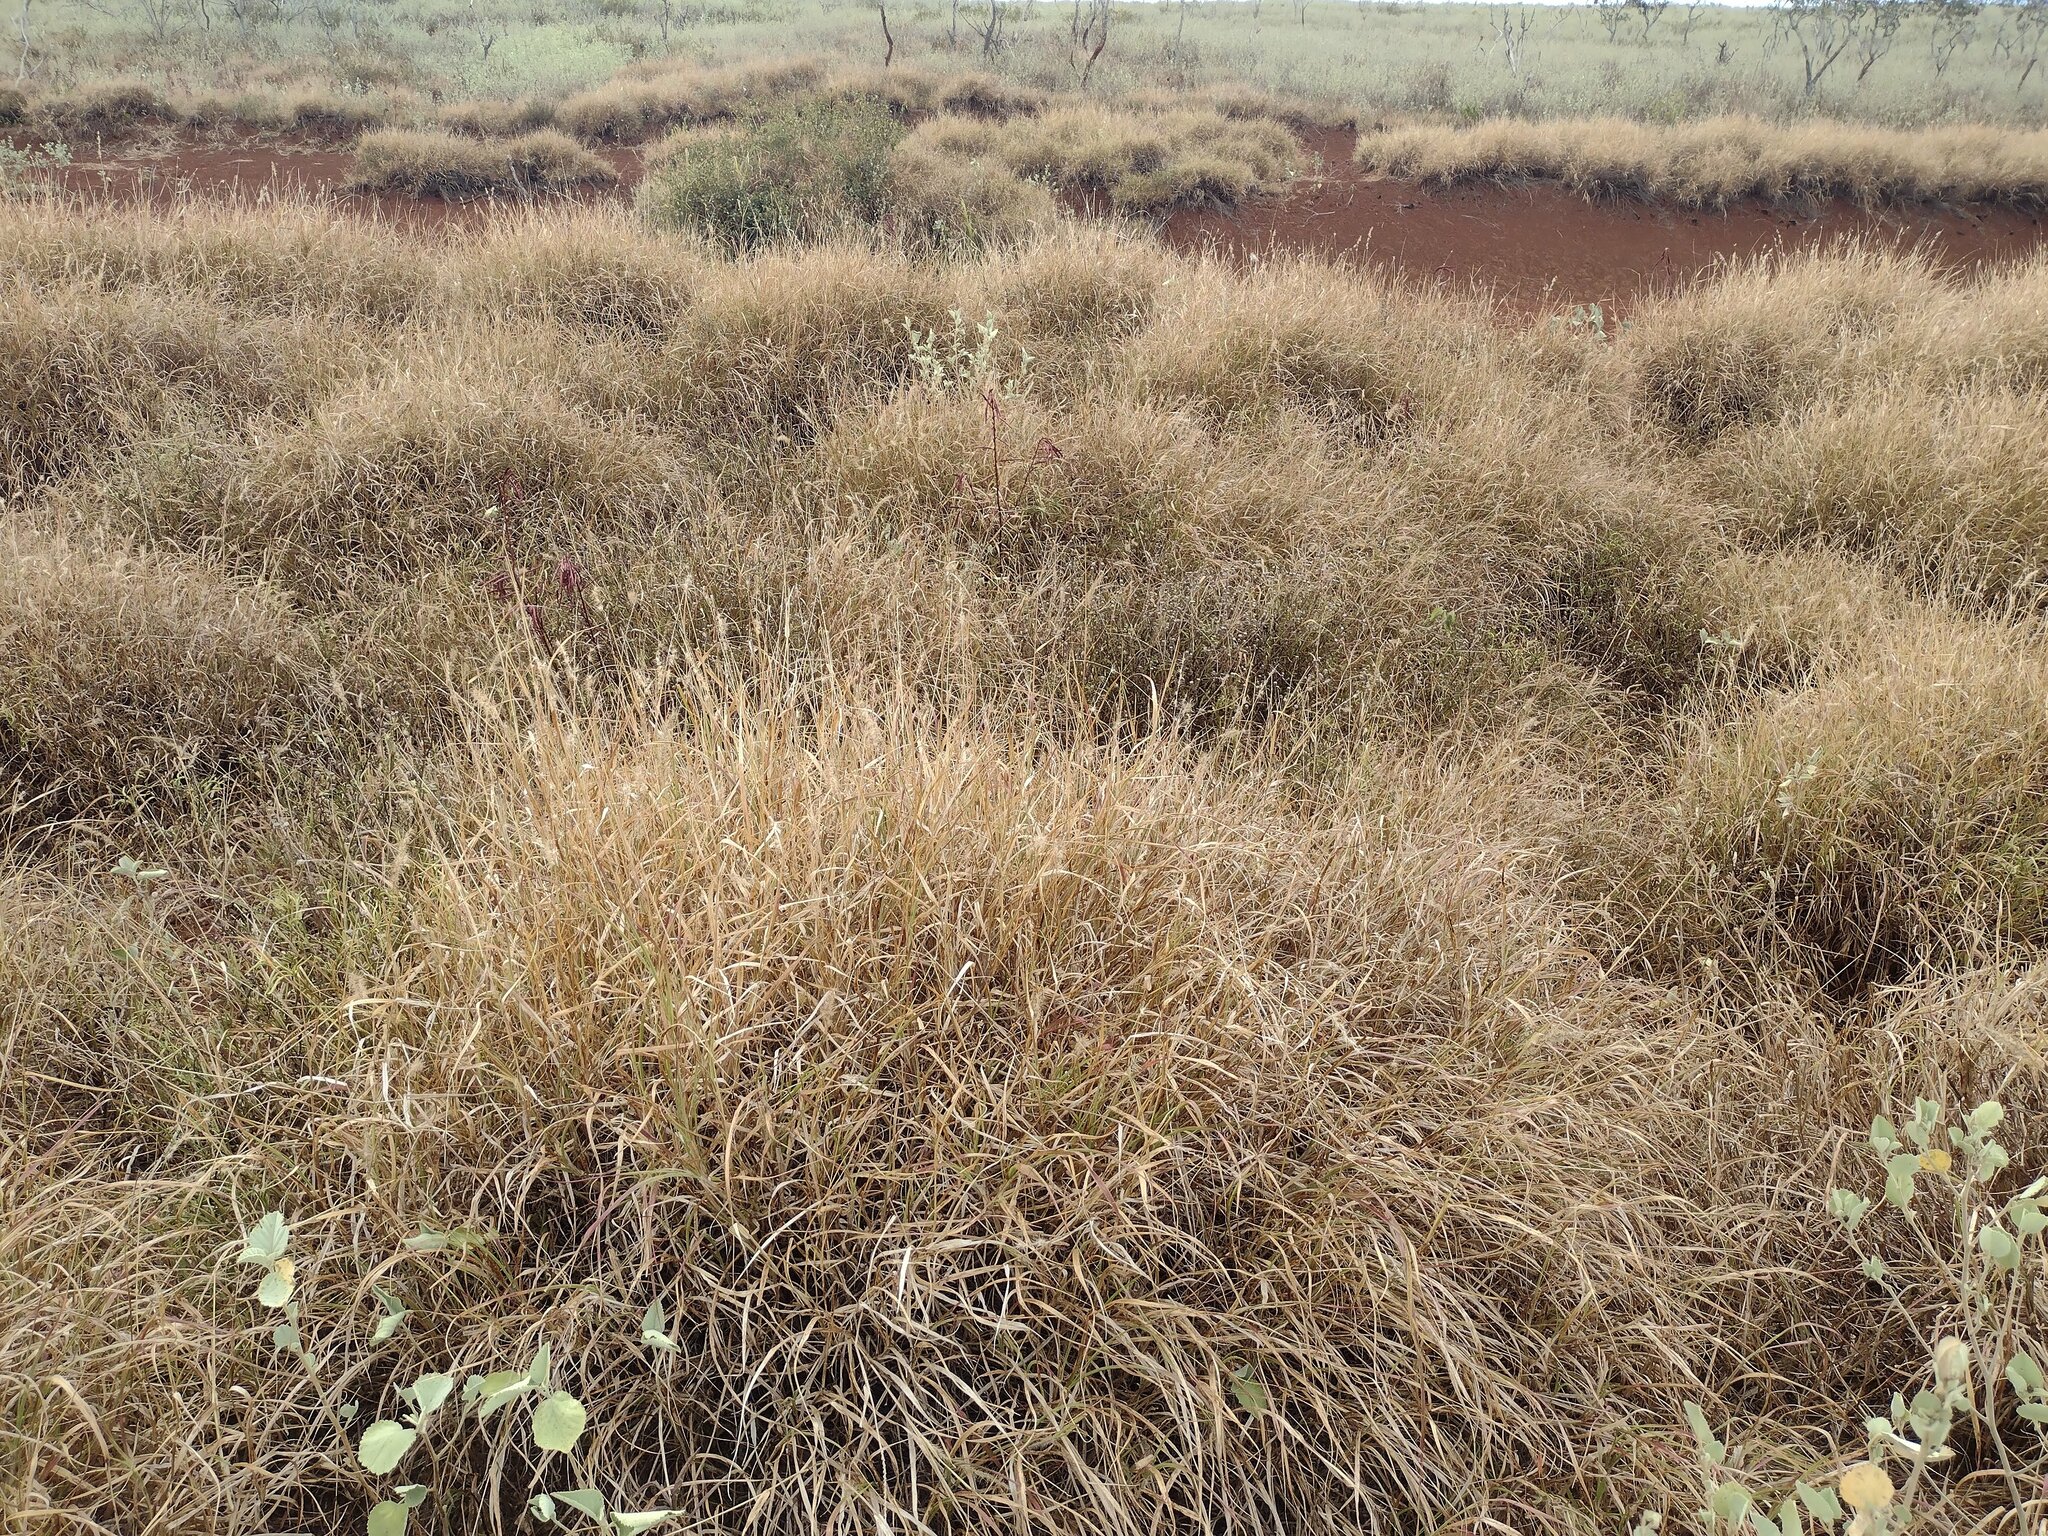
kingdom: Plantae
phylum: Tracheophyta
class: Liliopsida
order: Poales
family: Poaceae
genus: Cenchrus
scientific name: Cenchrus ciliaris
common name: Buffelgrass
